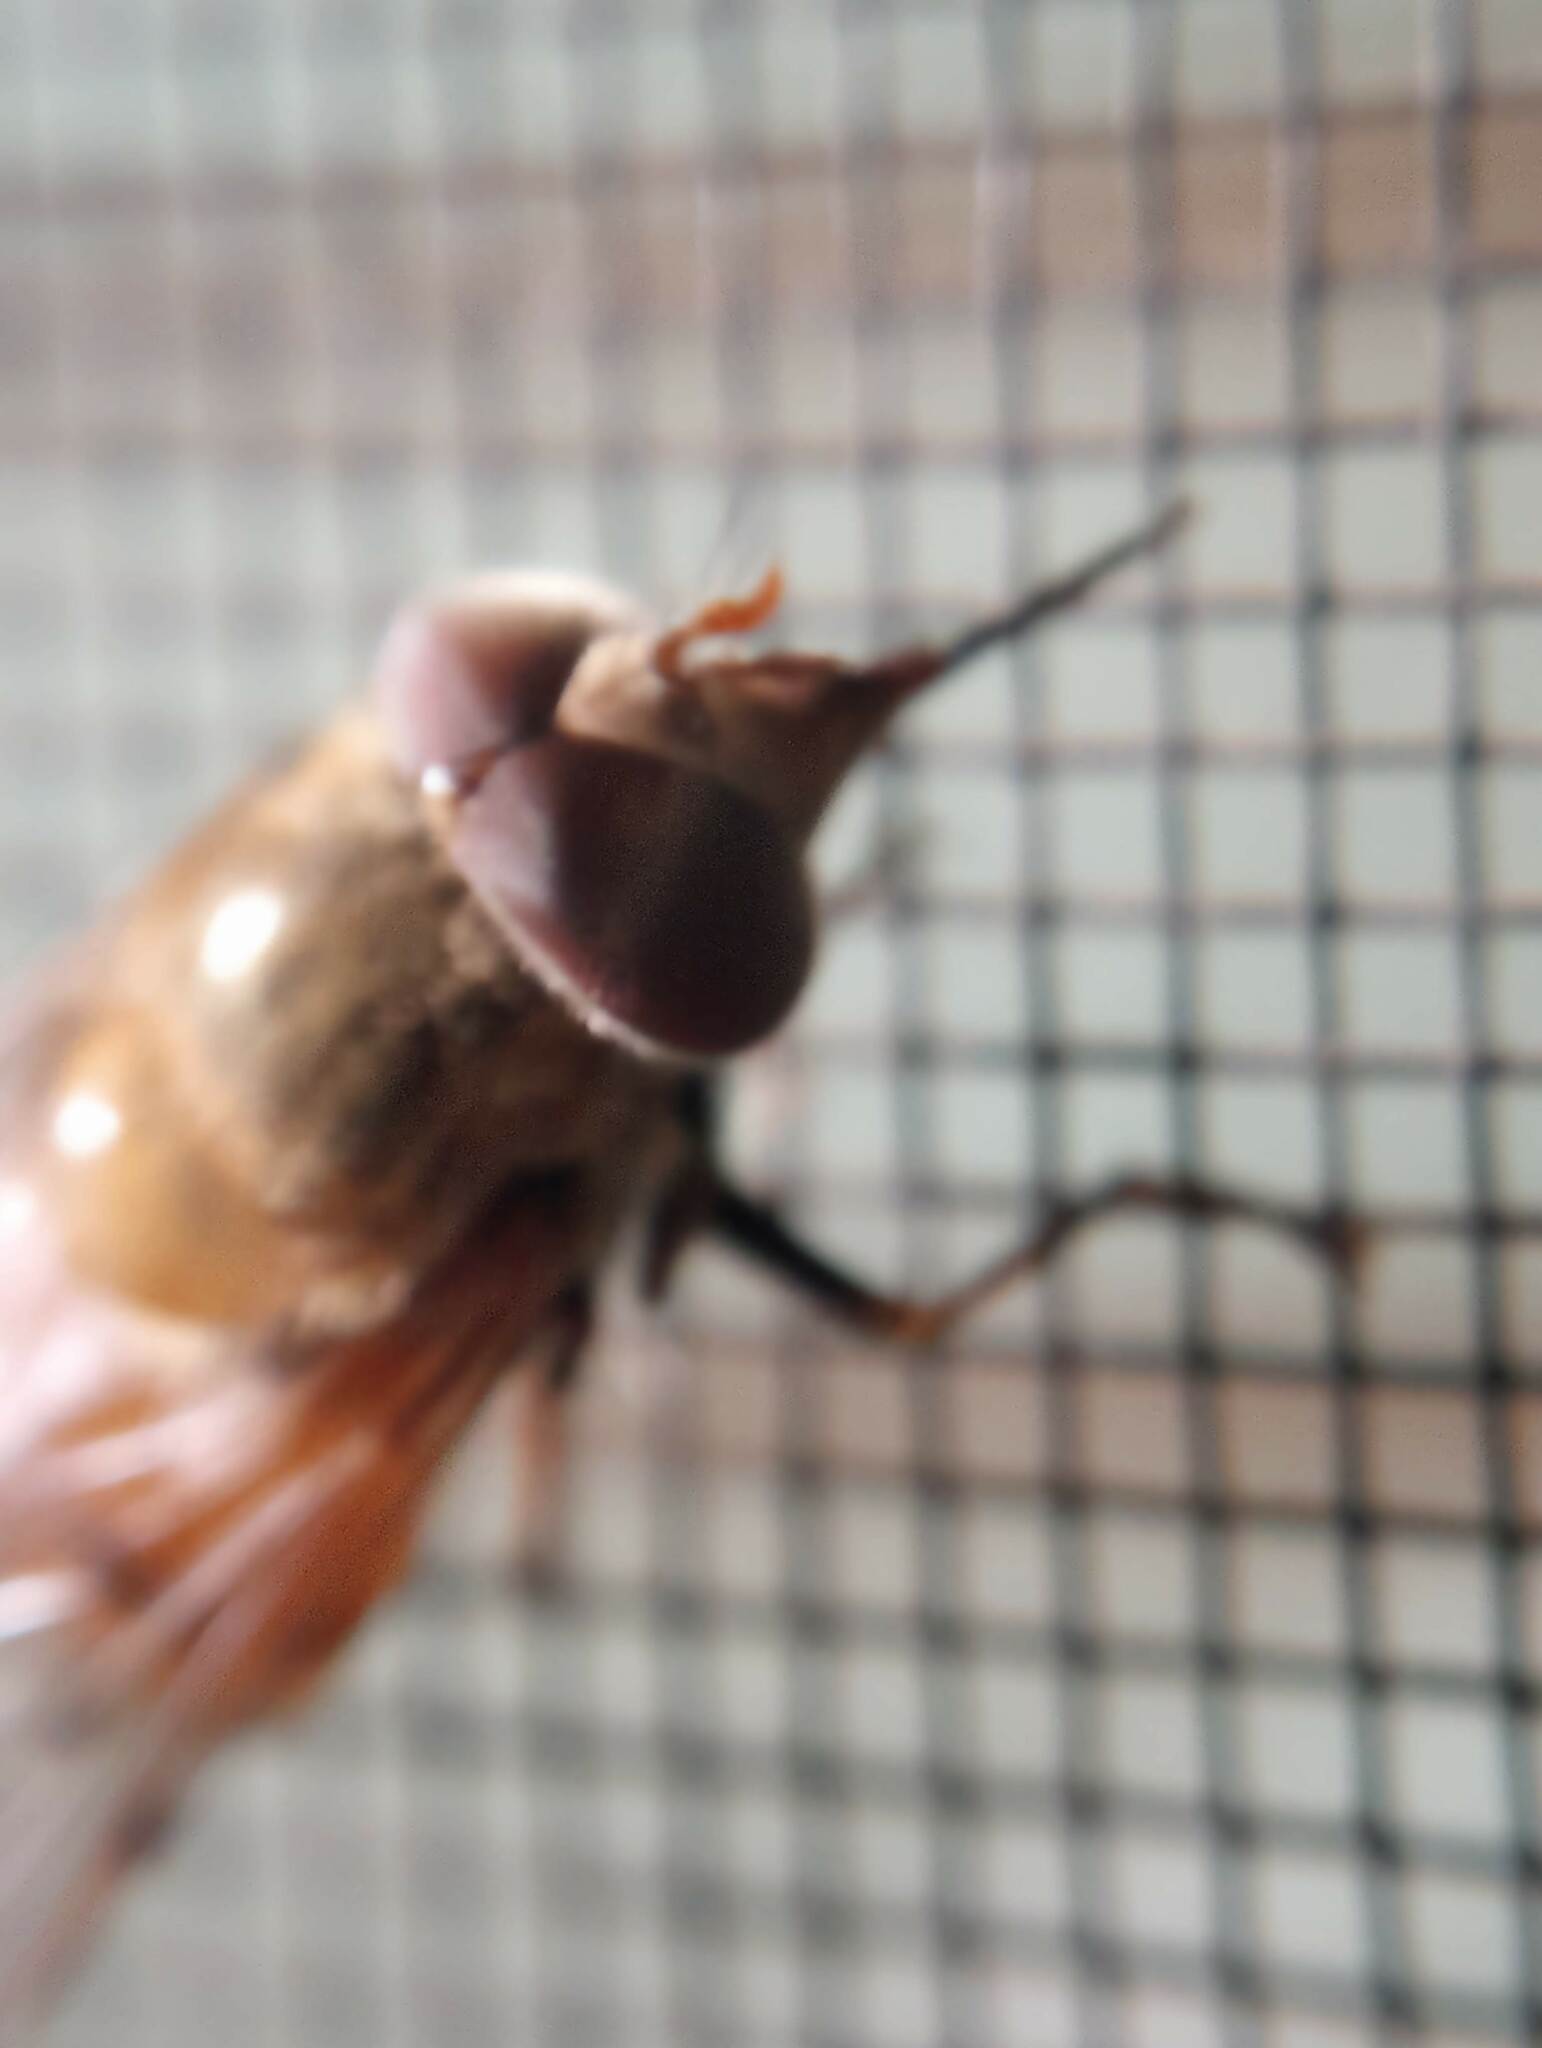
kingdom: Animalia
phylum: Arthropoda
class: Insecta
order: Diptera
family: Syrphidae
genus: Copestylum
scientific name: Copestylum haagii
